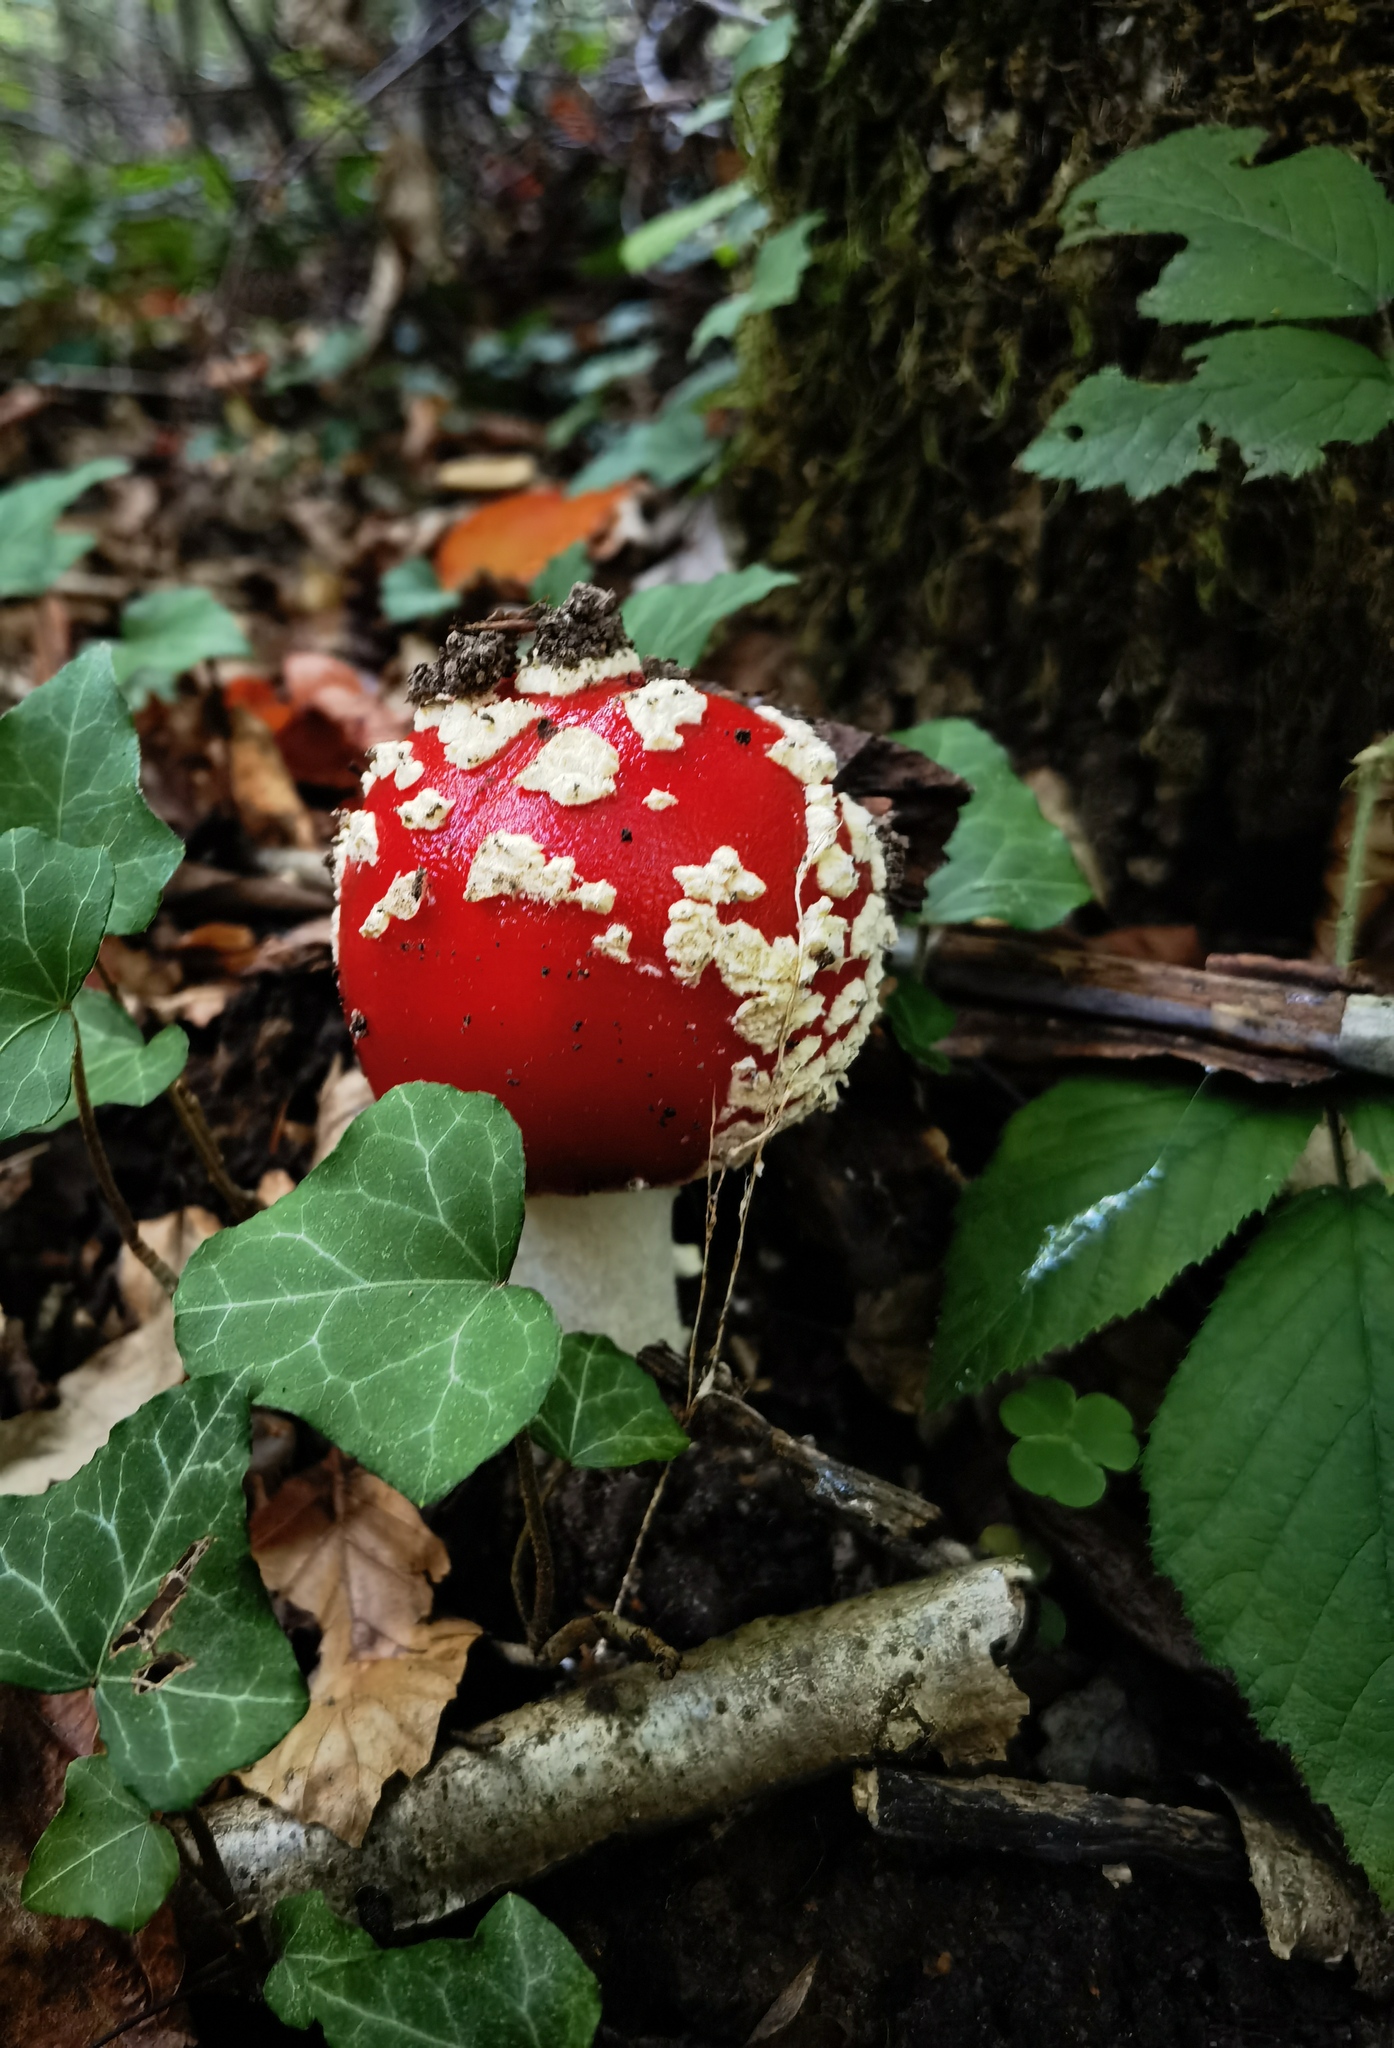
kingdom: Fungi
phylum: Basidiomycota
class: Agaricomycetes
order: Agaricales
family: Amanitaceae
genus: Amanita
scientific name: Amanita muscaria
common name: Fly agaric
